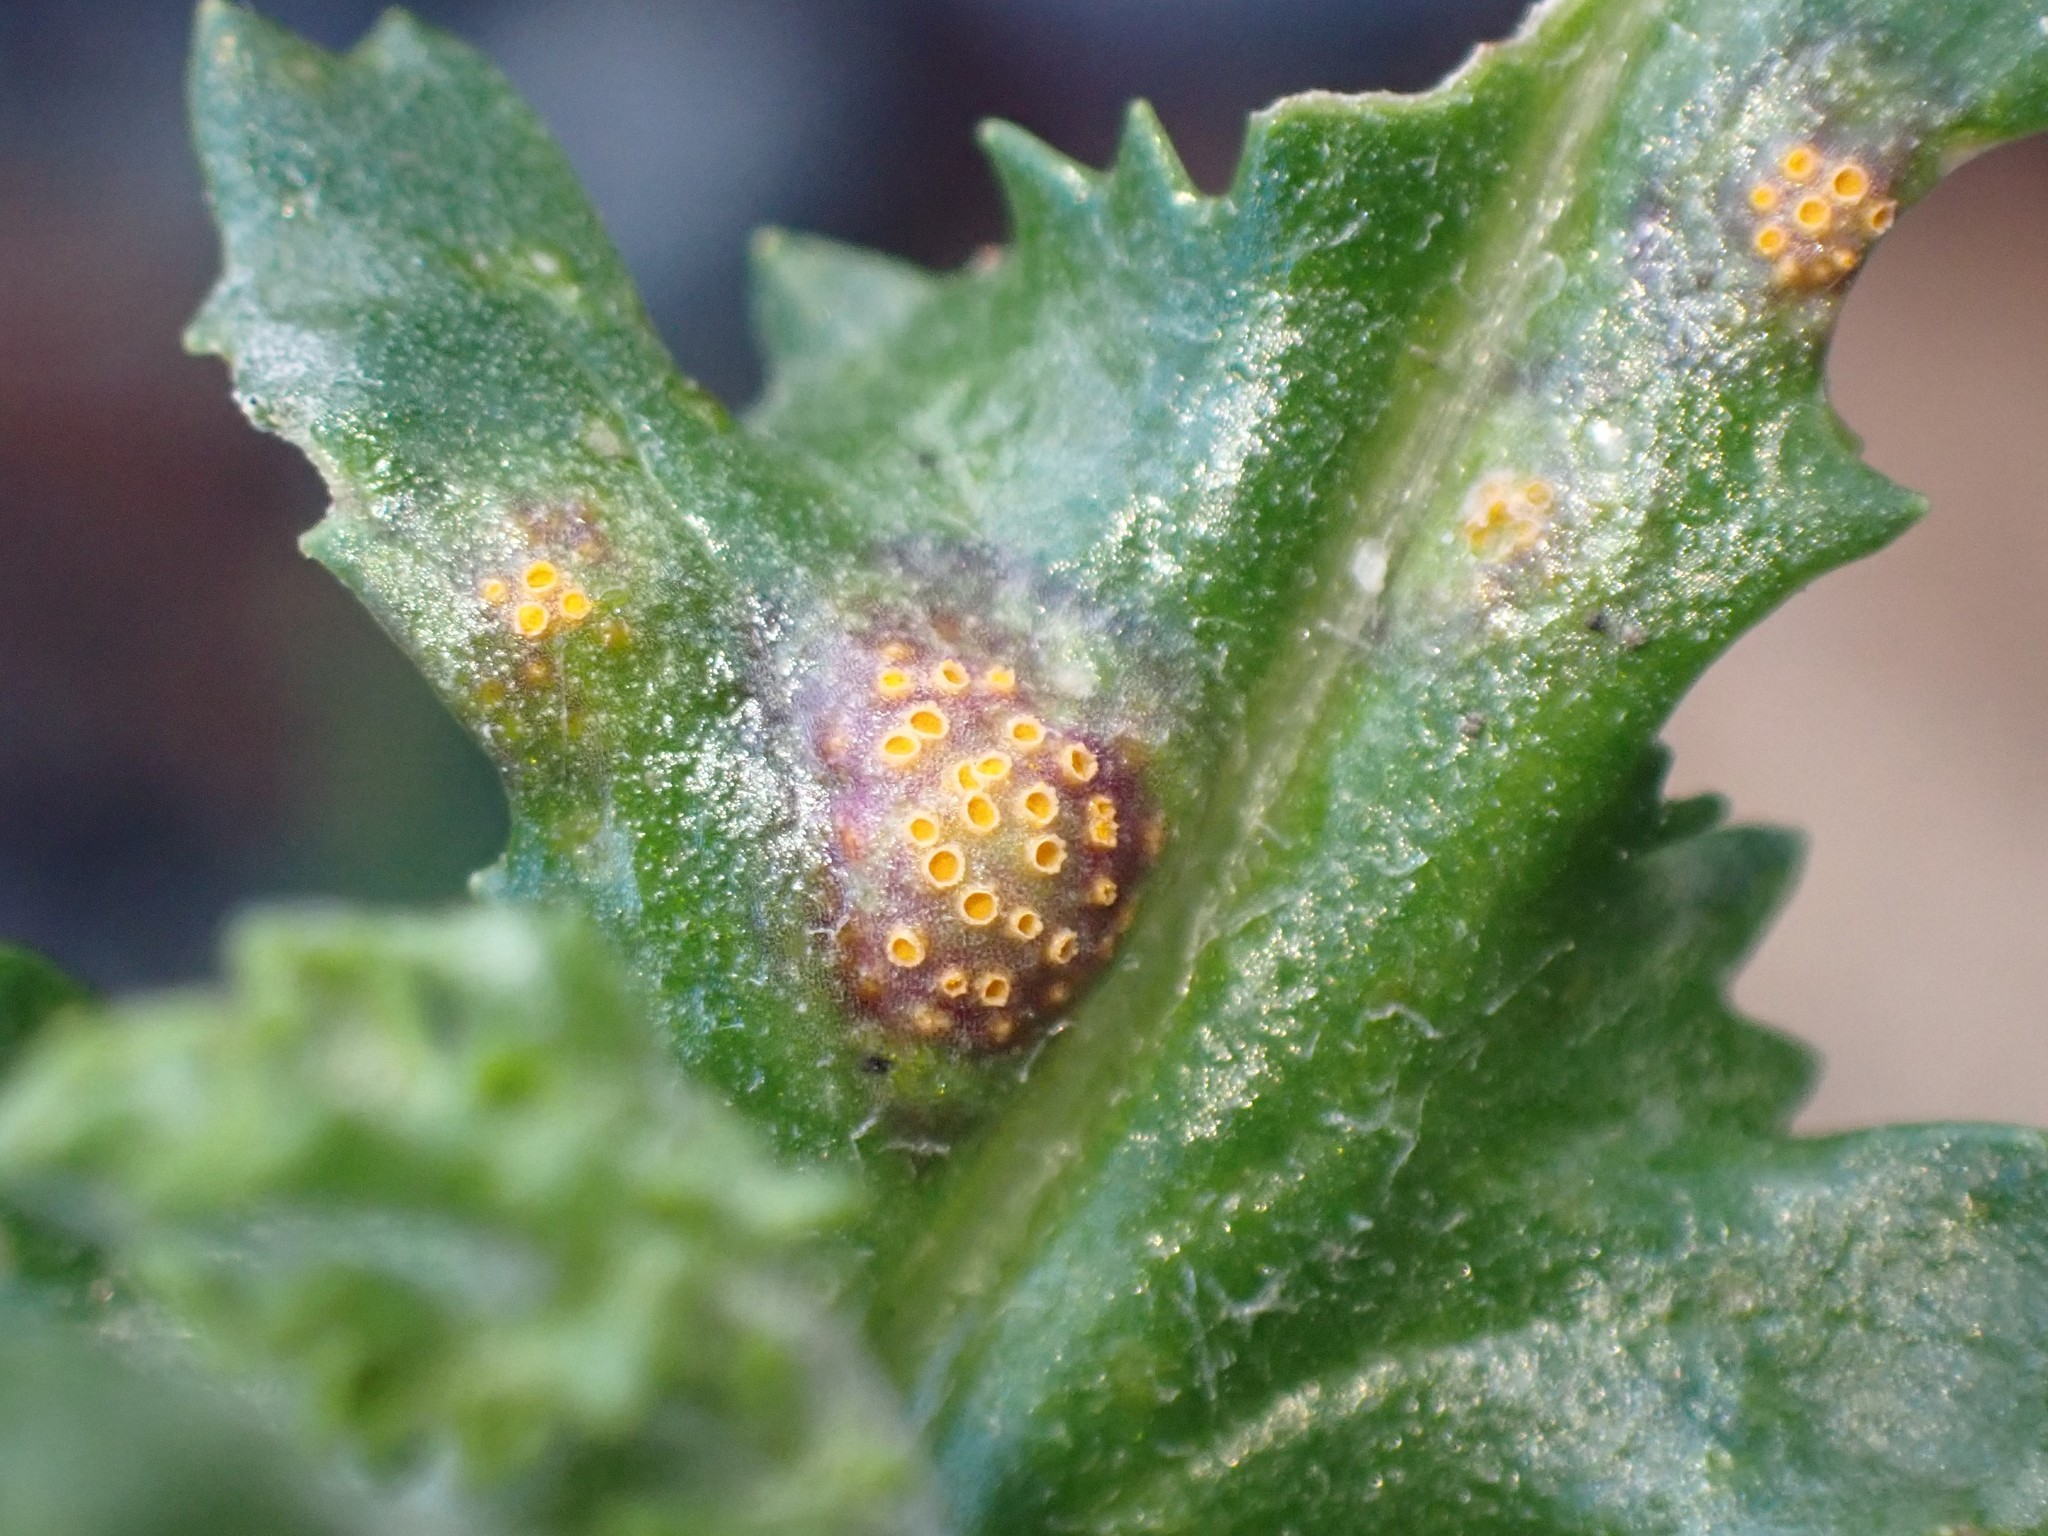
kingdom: Fungi
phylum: Basidiomycota
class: Pucciniomycetes
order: Pucciniales
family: Pucciniaceae
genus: Puccinia
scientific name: Puccinia lagenophorae
